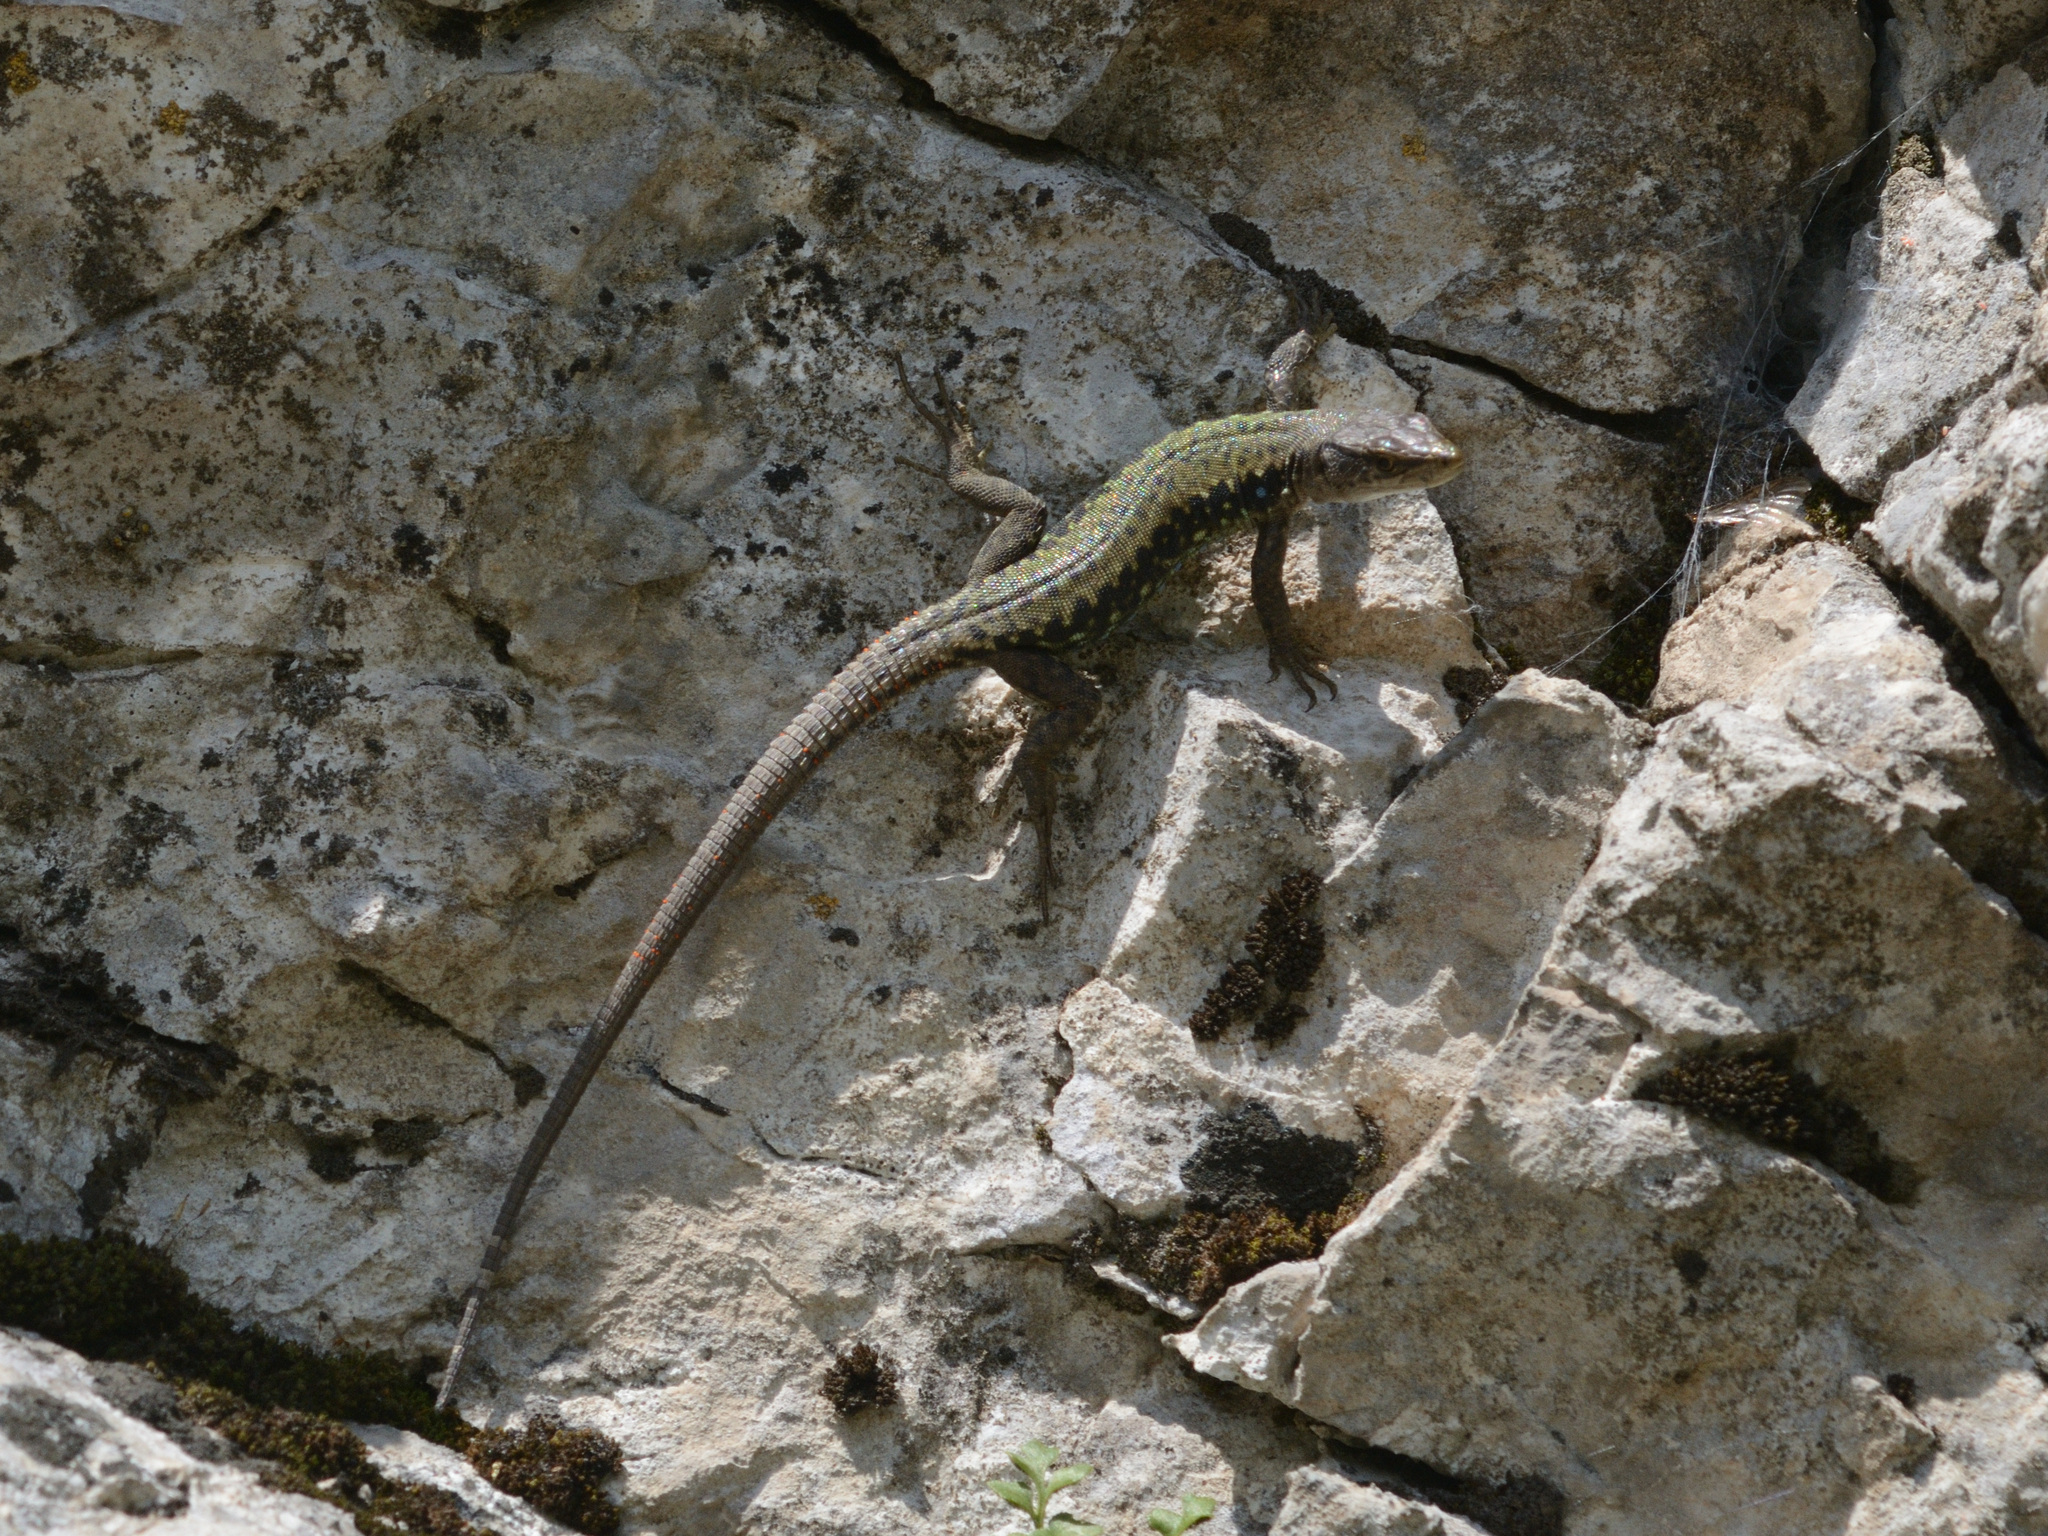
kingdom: Animalia
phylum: Chordata
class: Squamata
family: Lacertidae
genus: Darevskia
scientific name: Darevskia brauneri
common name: Brauner's rock lizard
